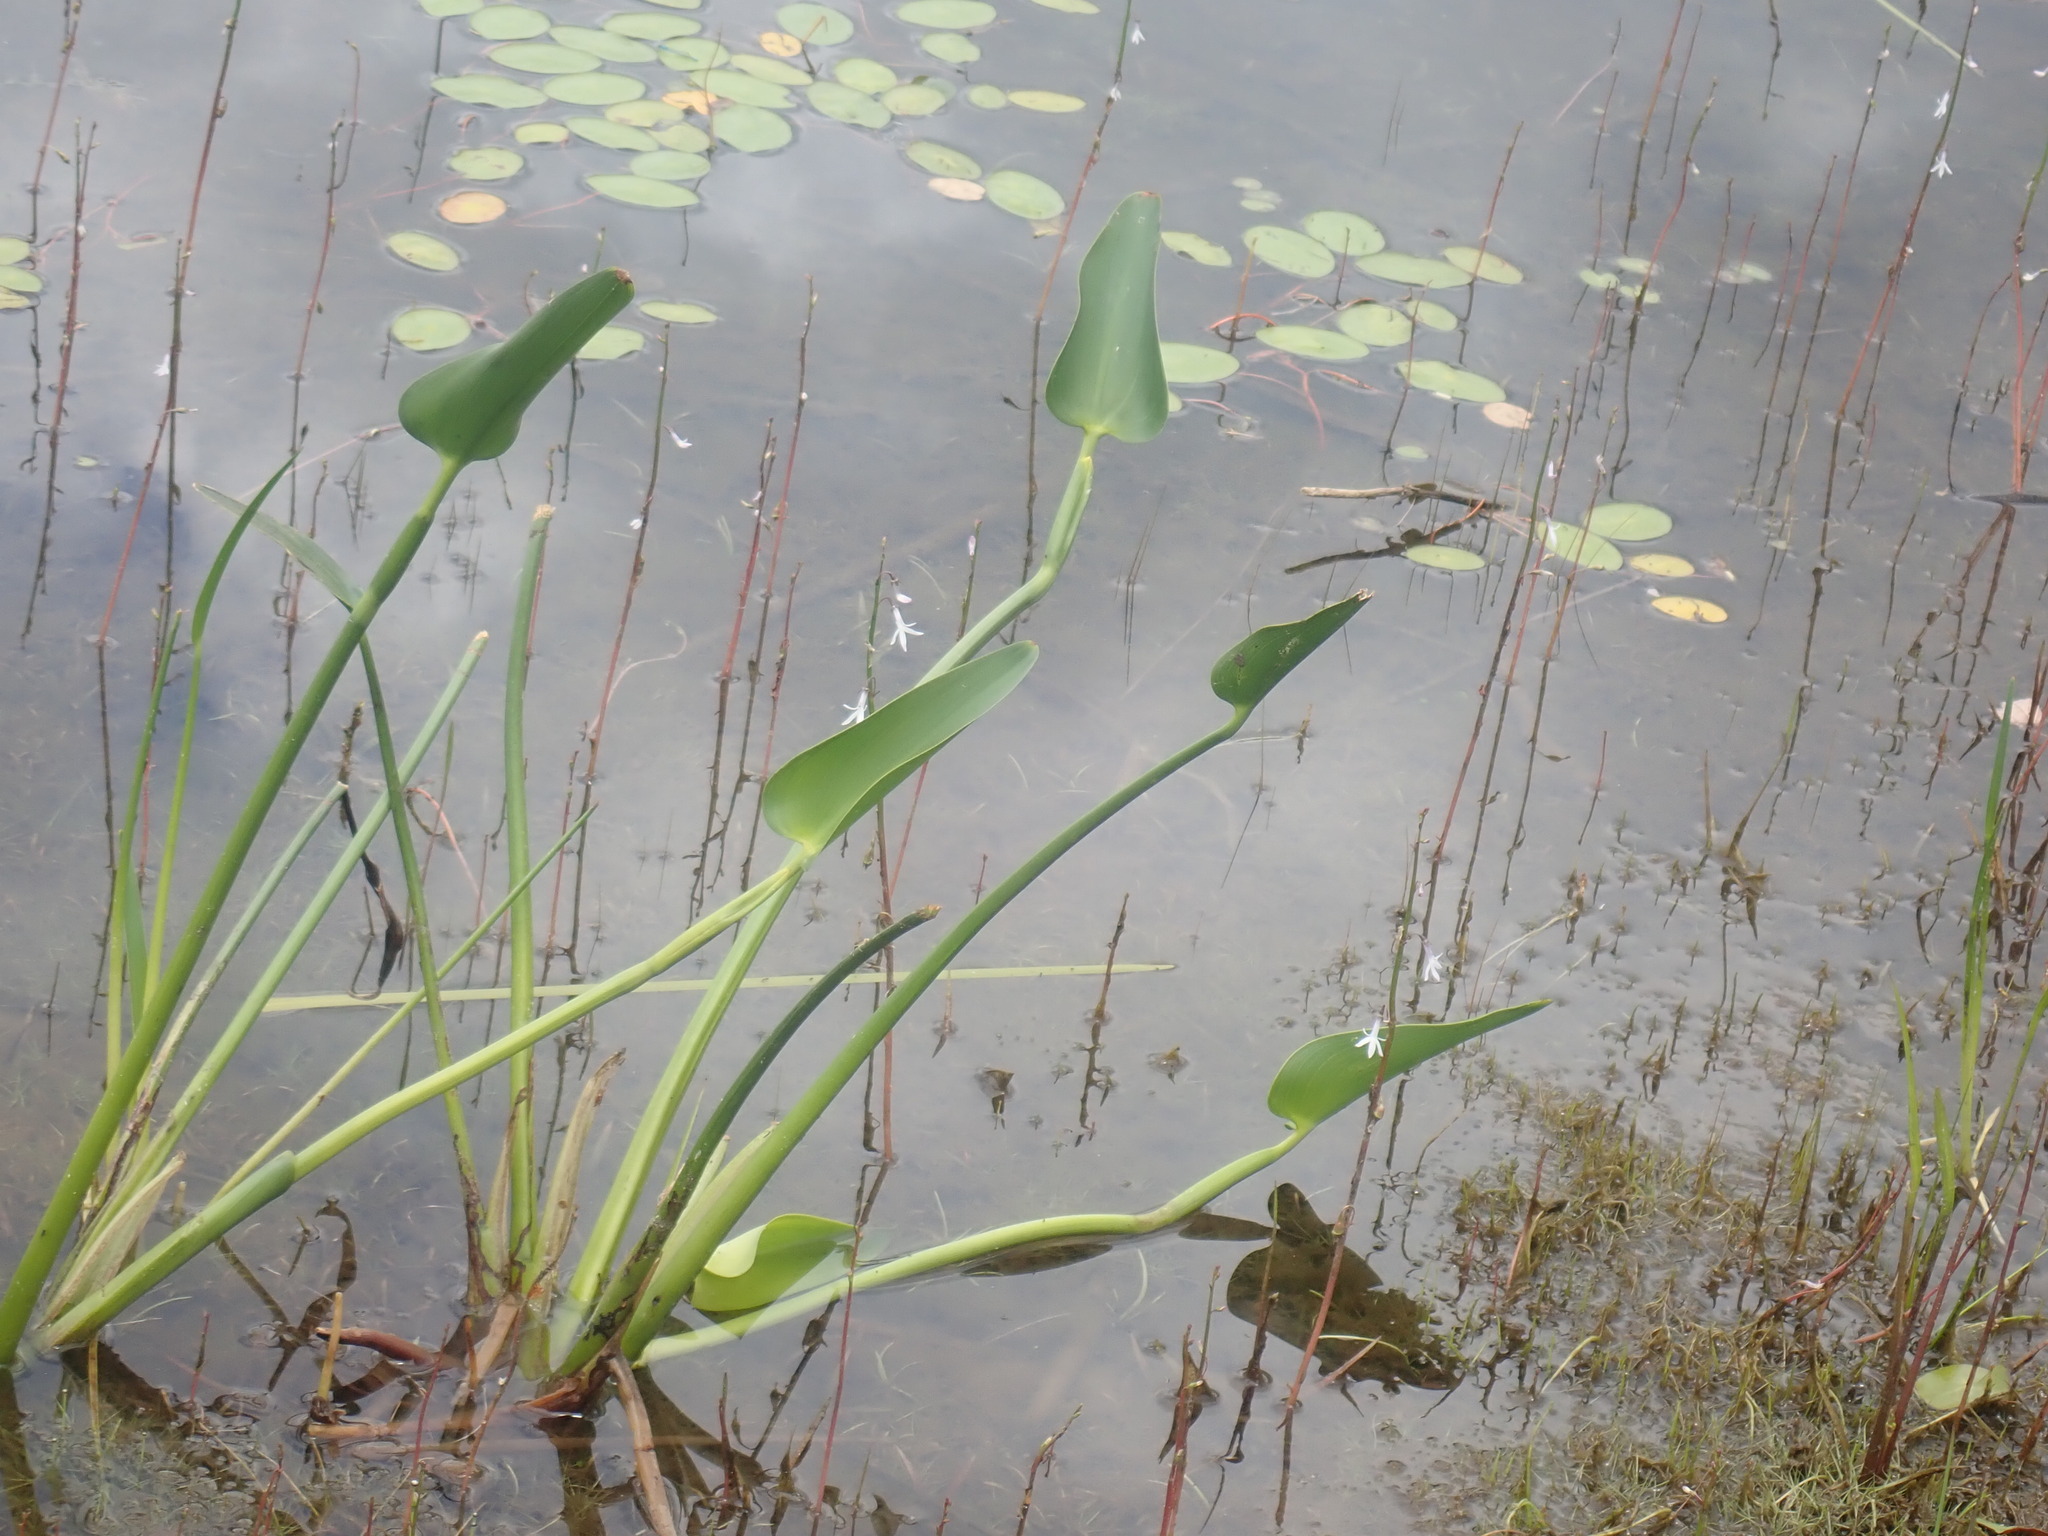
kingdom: Plantae
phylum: Tracheophyta
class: Liliopsida
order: Commelinales
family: Pontederiaceae
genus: Pontederia
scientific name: Pontederia cordata
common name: Pickerelweed
